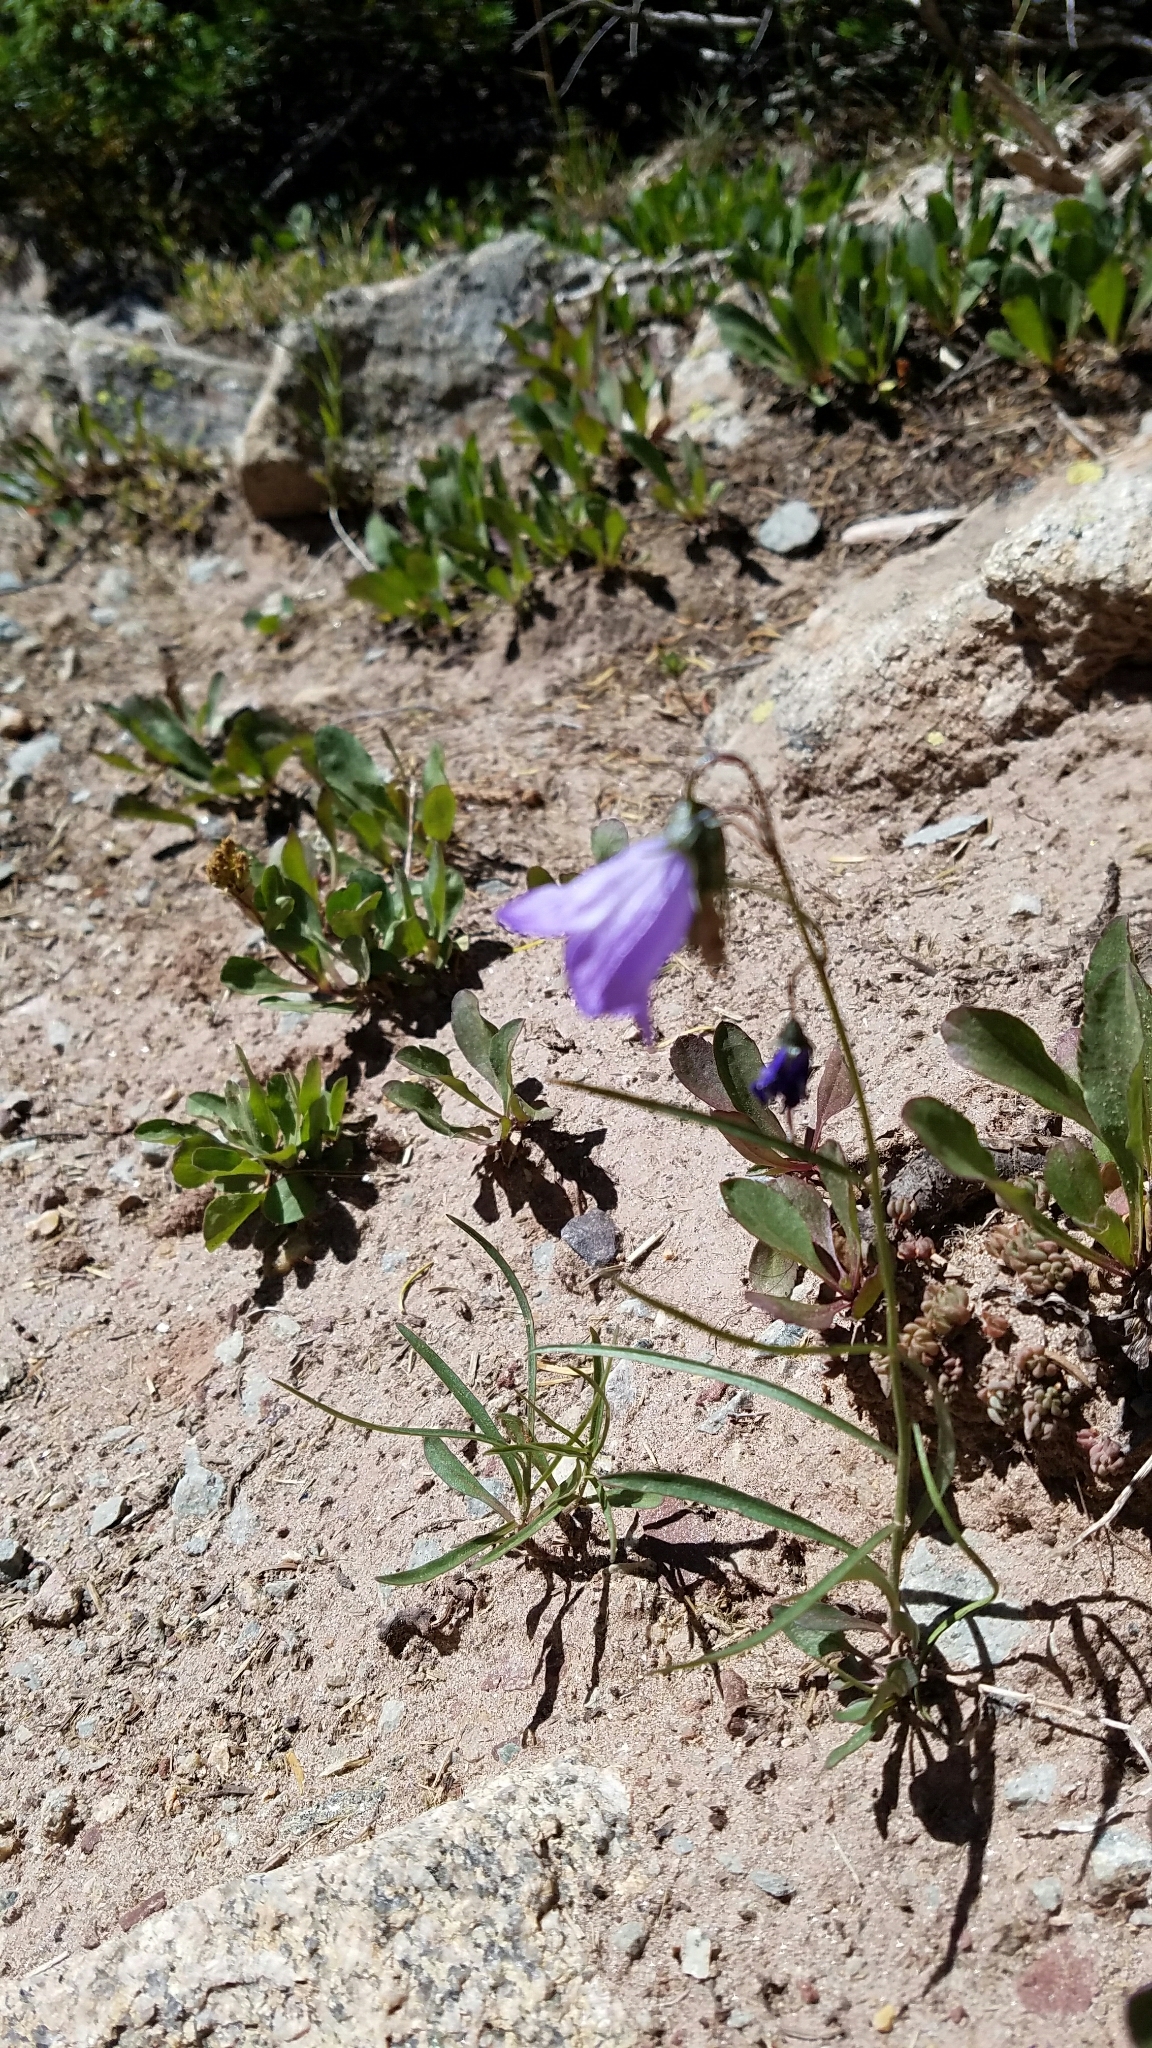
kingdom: Plantae
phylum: Tracheophyta
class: Magnoliopsida
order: Asterales
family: Campanulaceae
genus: Campanula
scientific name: Campanula petiolata
